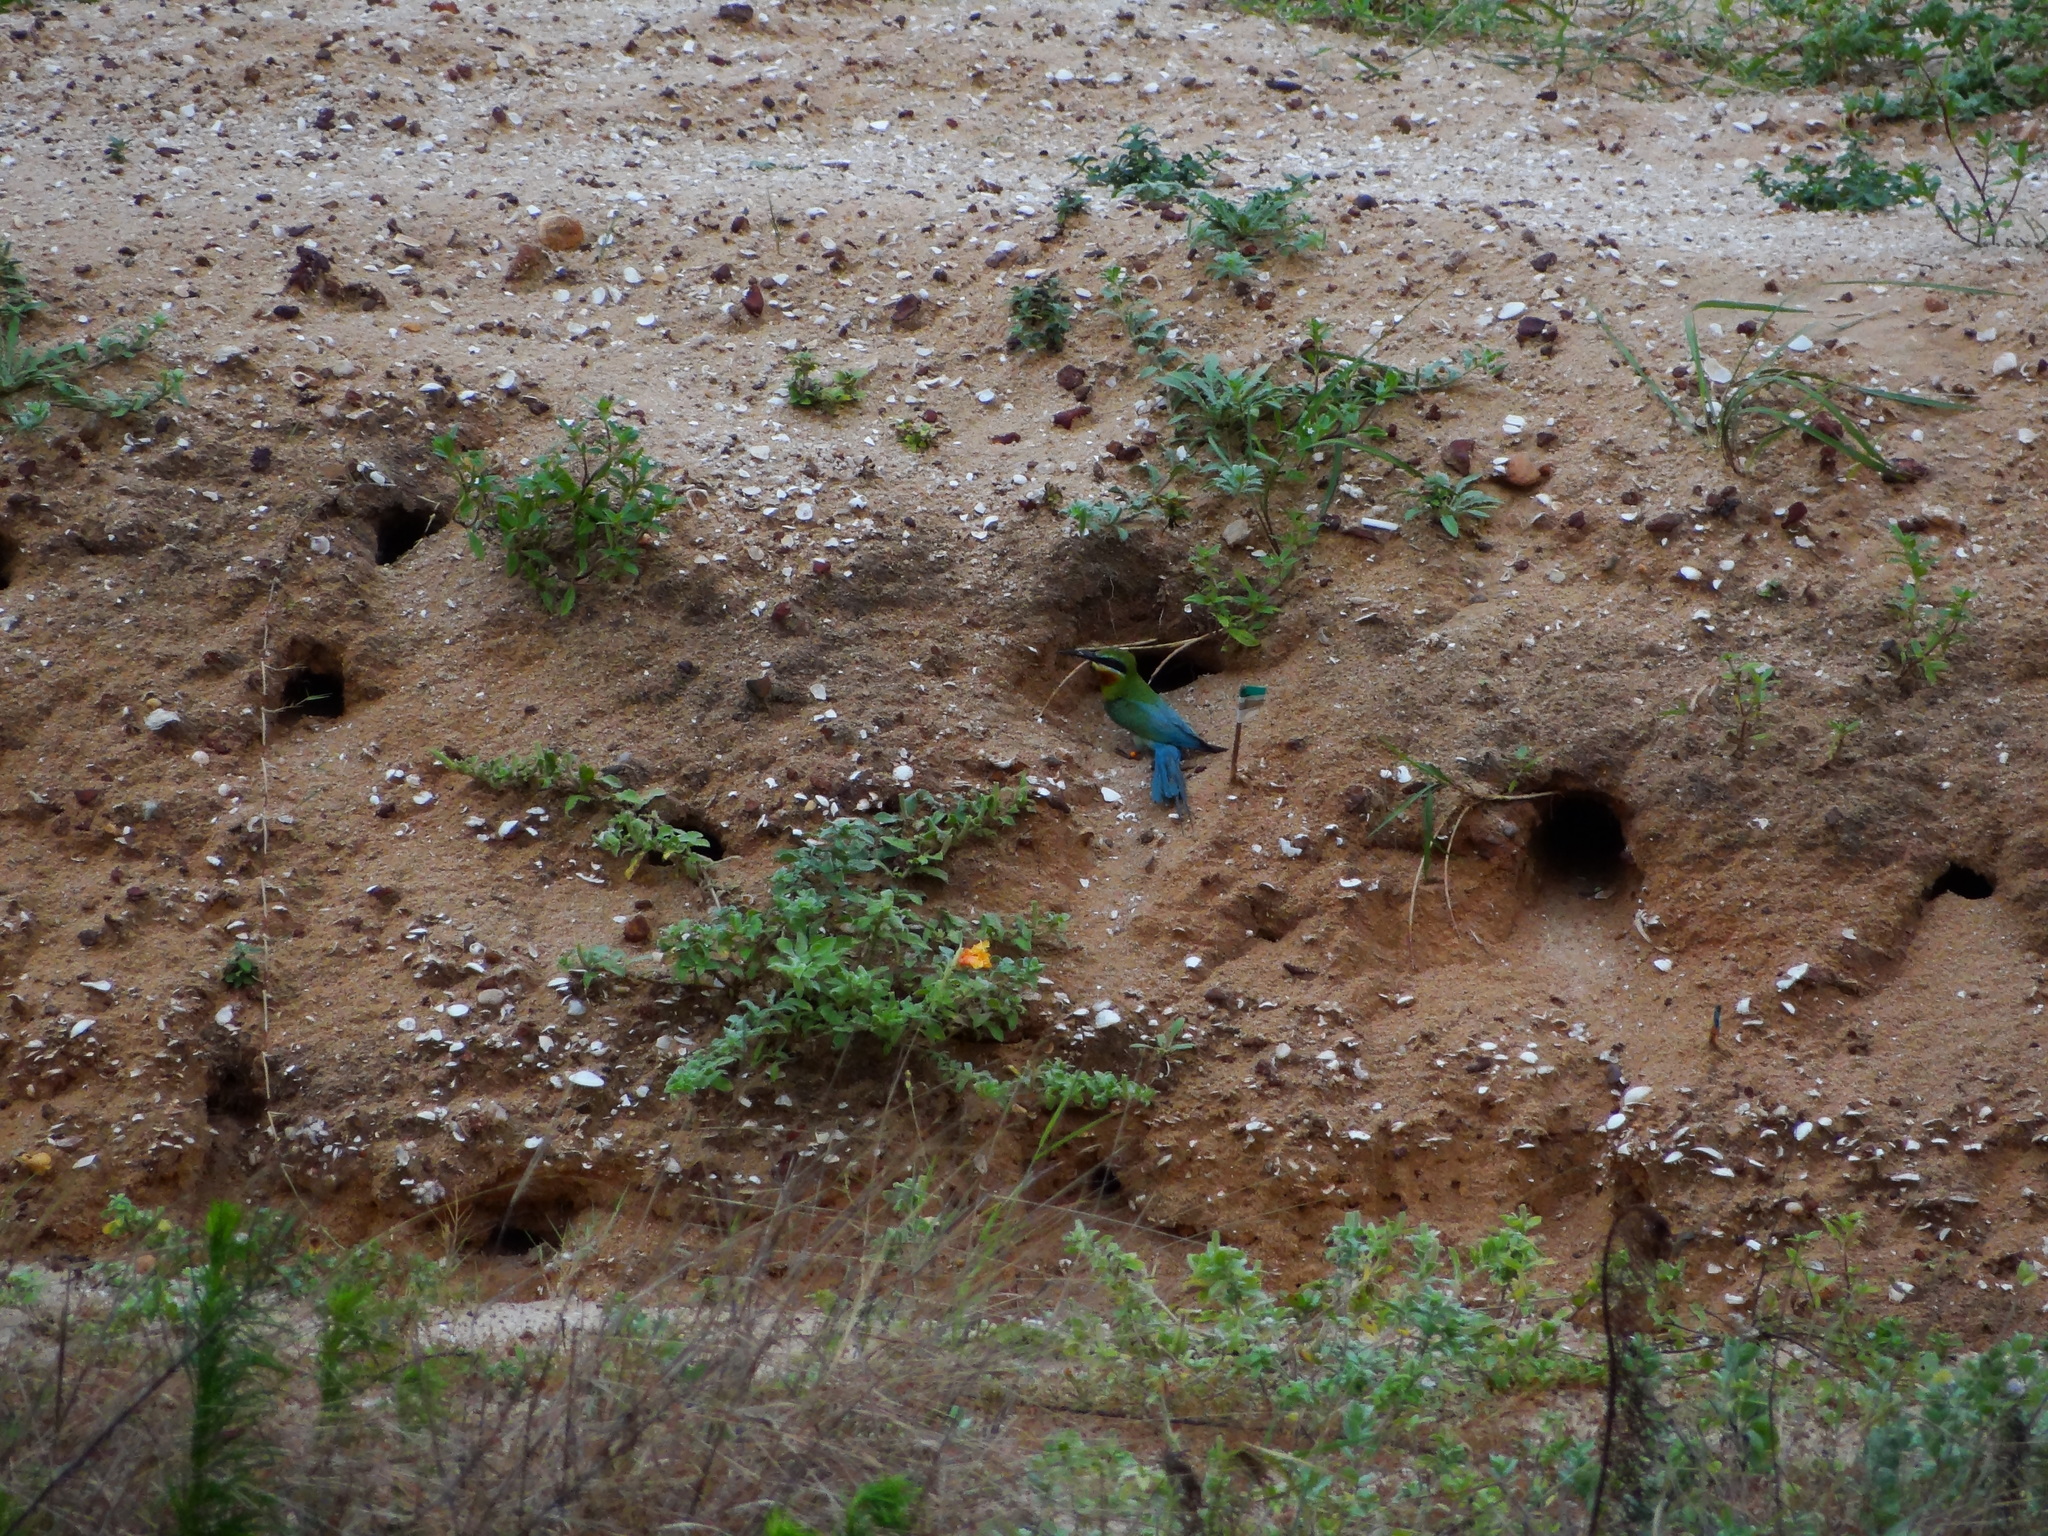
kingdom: Animalia
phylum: Chordata
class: Aves
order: Coraciiformes
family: Meropidae
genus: Merops
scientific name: Merops philippinus
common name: Blue-tailed bee-eater
